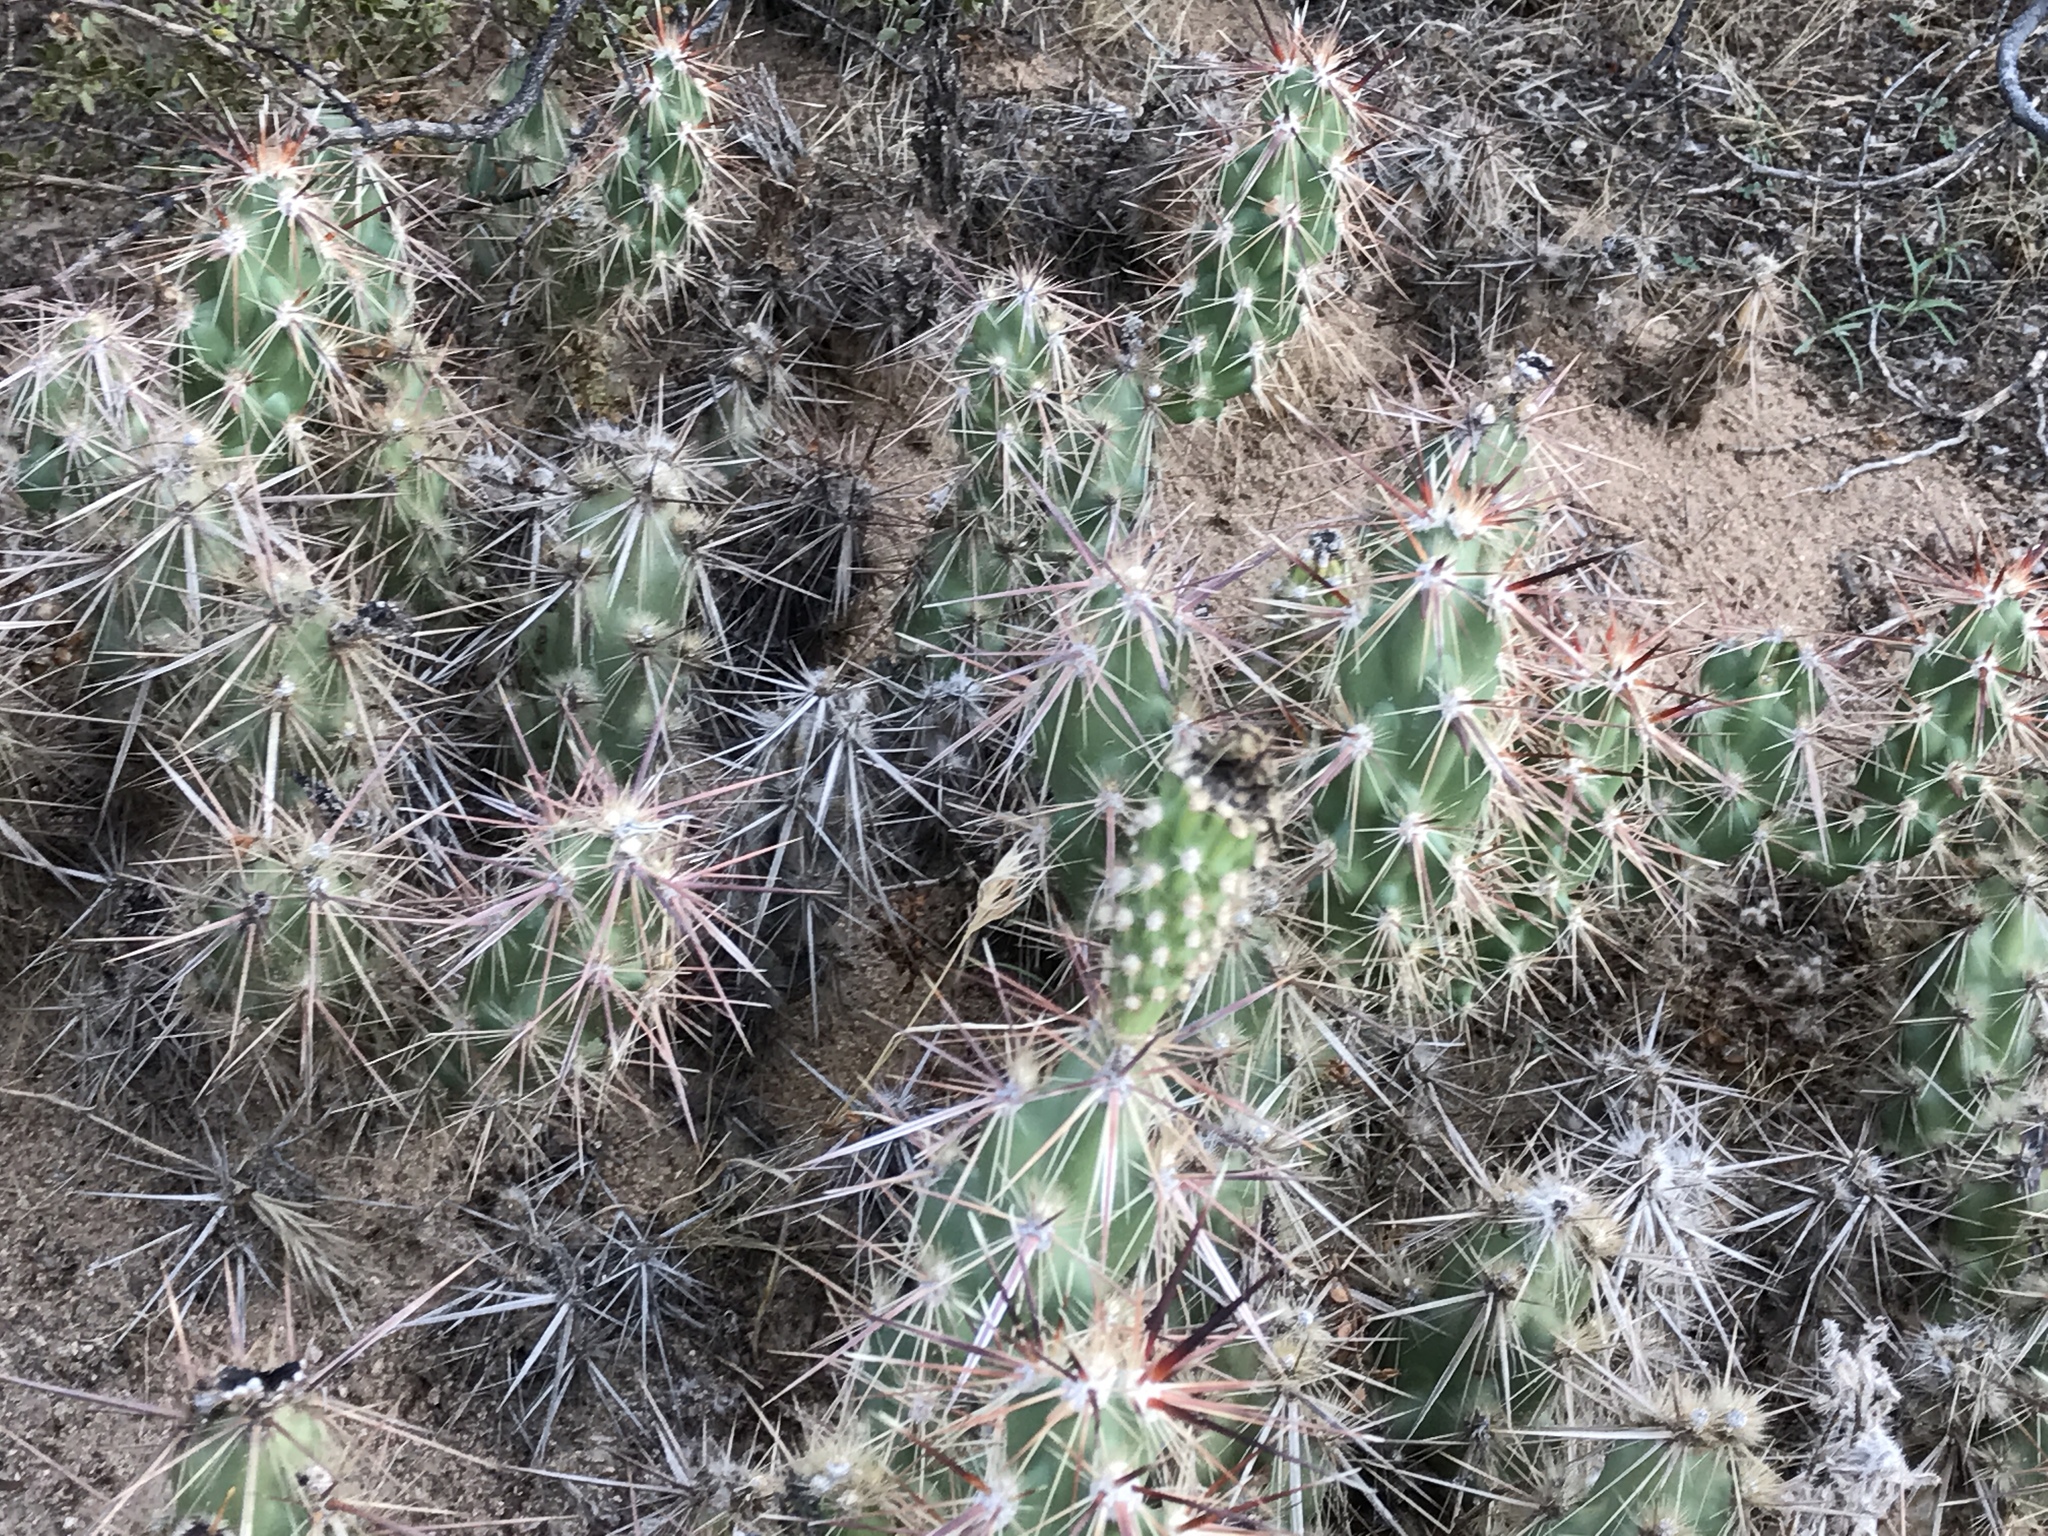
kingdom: Plantae
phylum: Tracheophyta
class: Magnoliopsida
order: Caryophyllales
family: Cactaceae
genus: Grusonia
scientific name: Grusonia parishiorum
